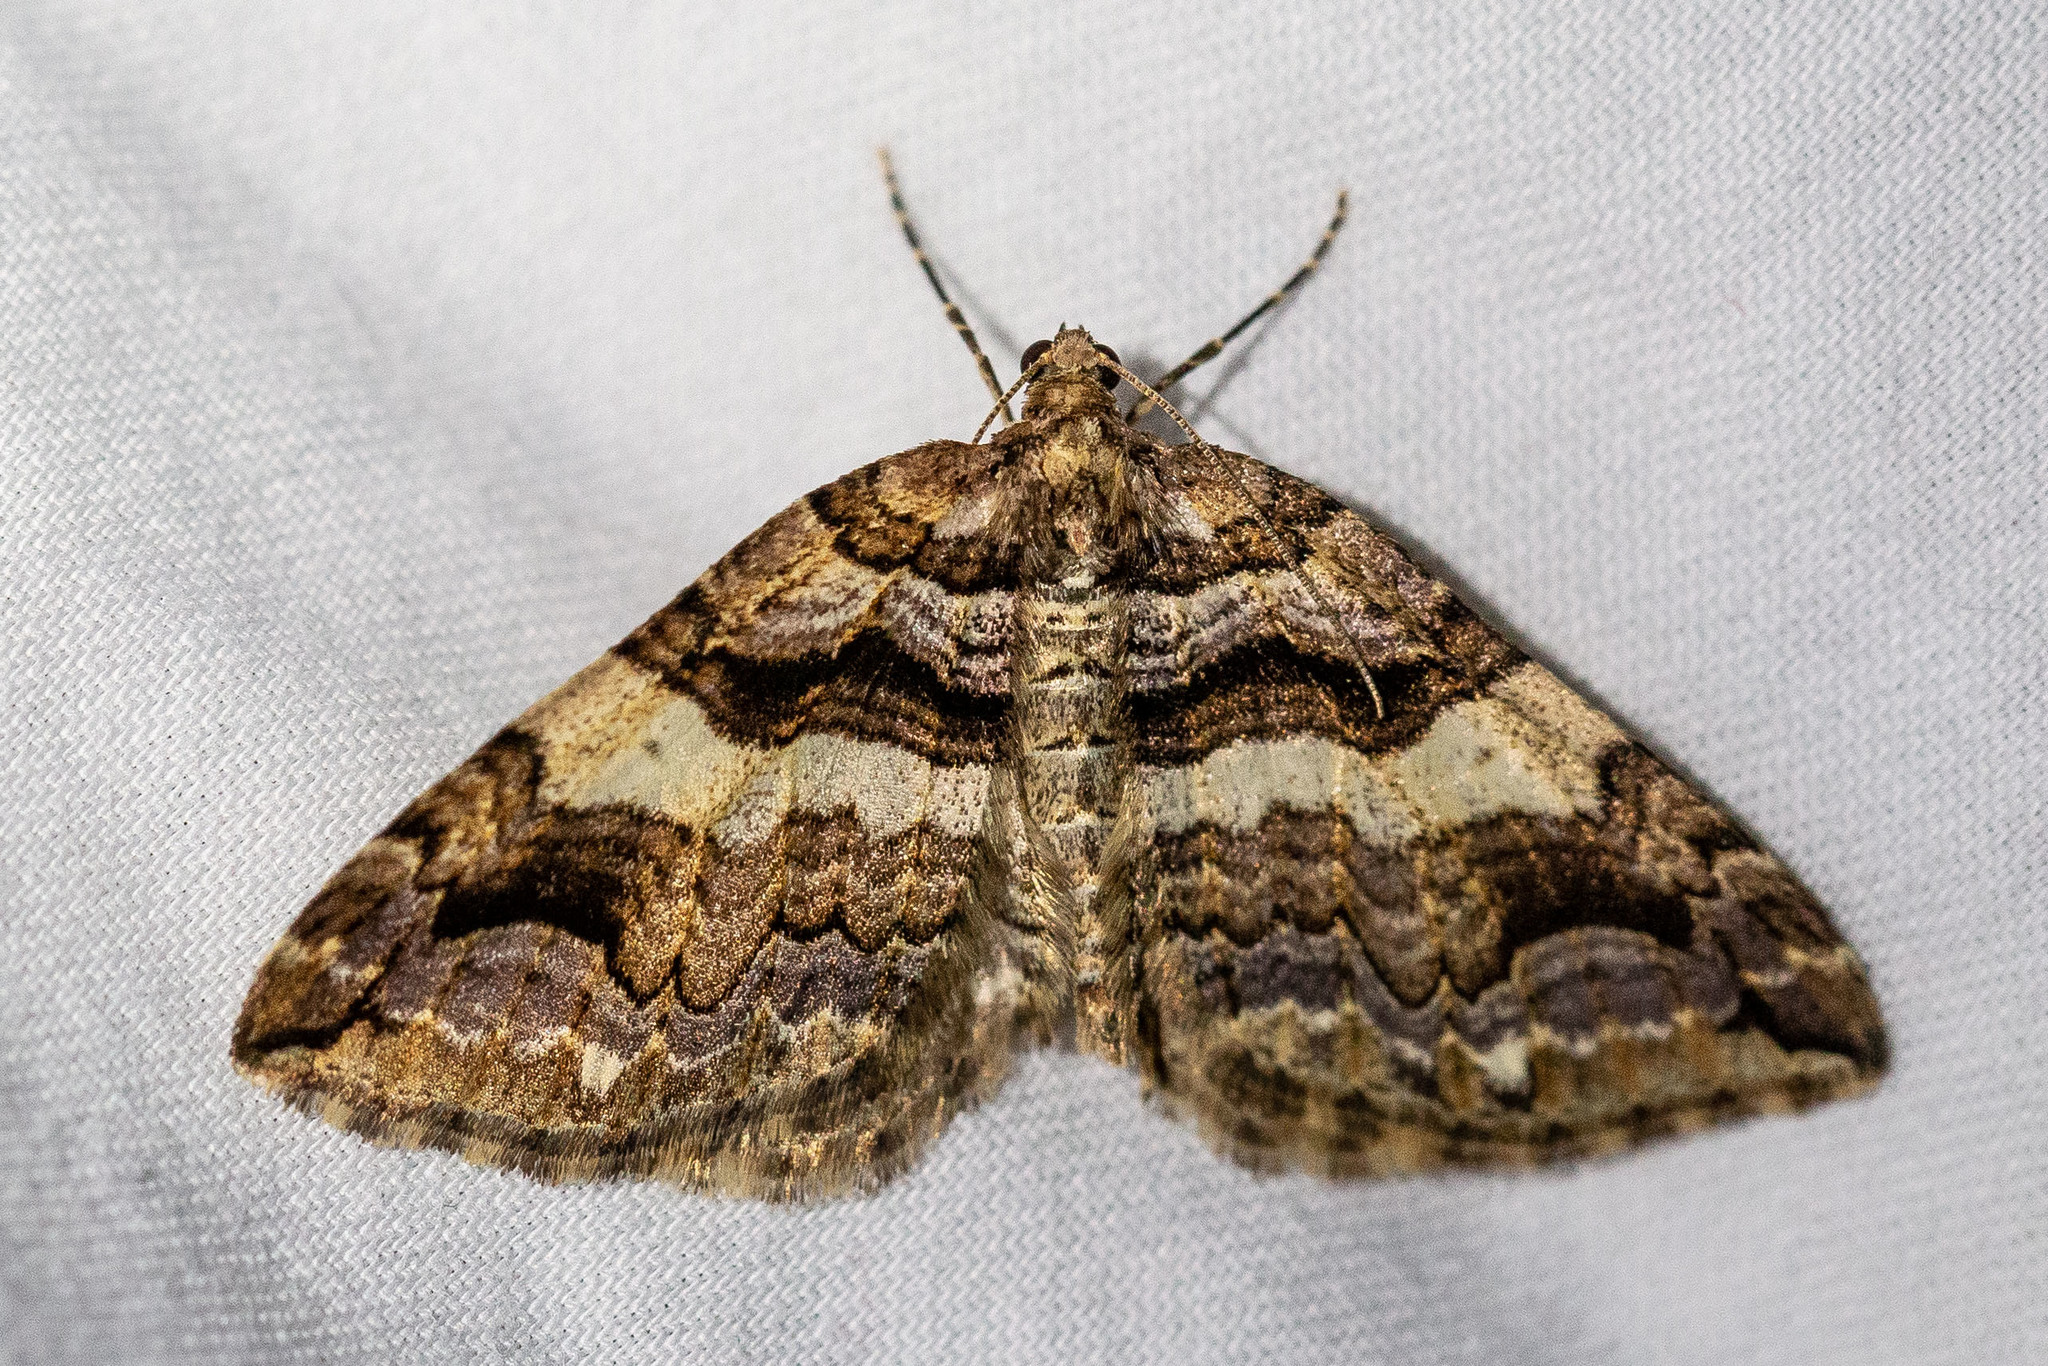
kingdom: Animalia
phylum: Arthropoda
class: Insecta
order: Lepidoptera
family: Geometridae
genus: Anticlea
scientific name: Anticlea vasiliata
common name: Variable carpet
